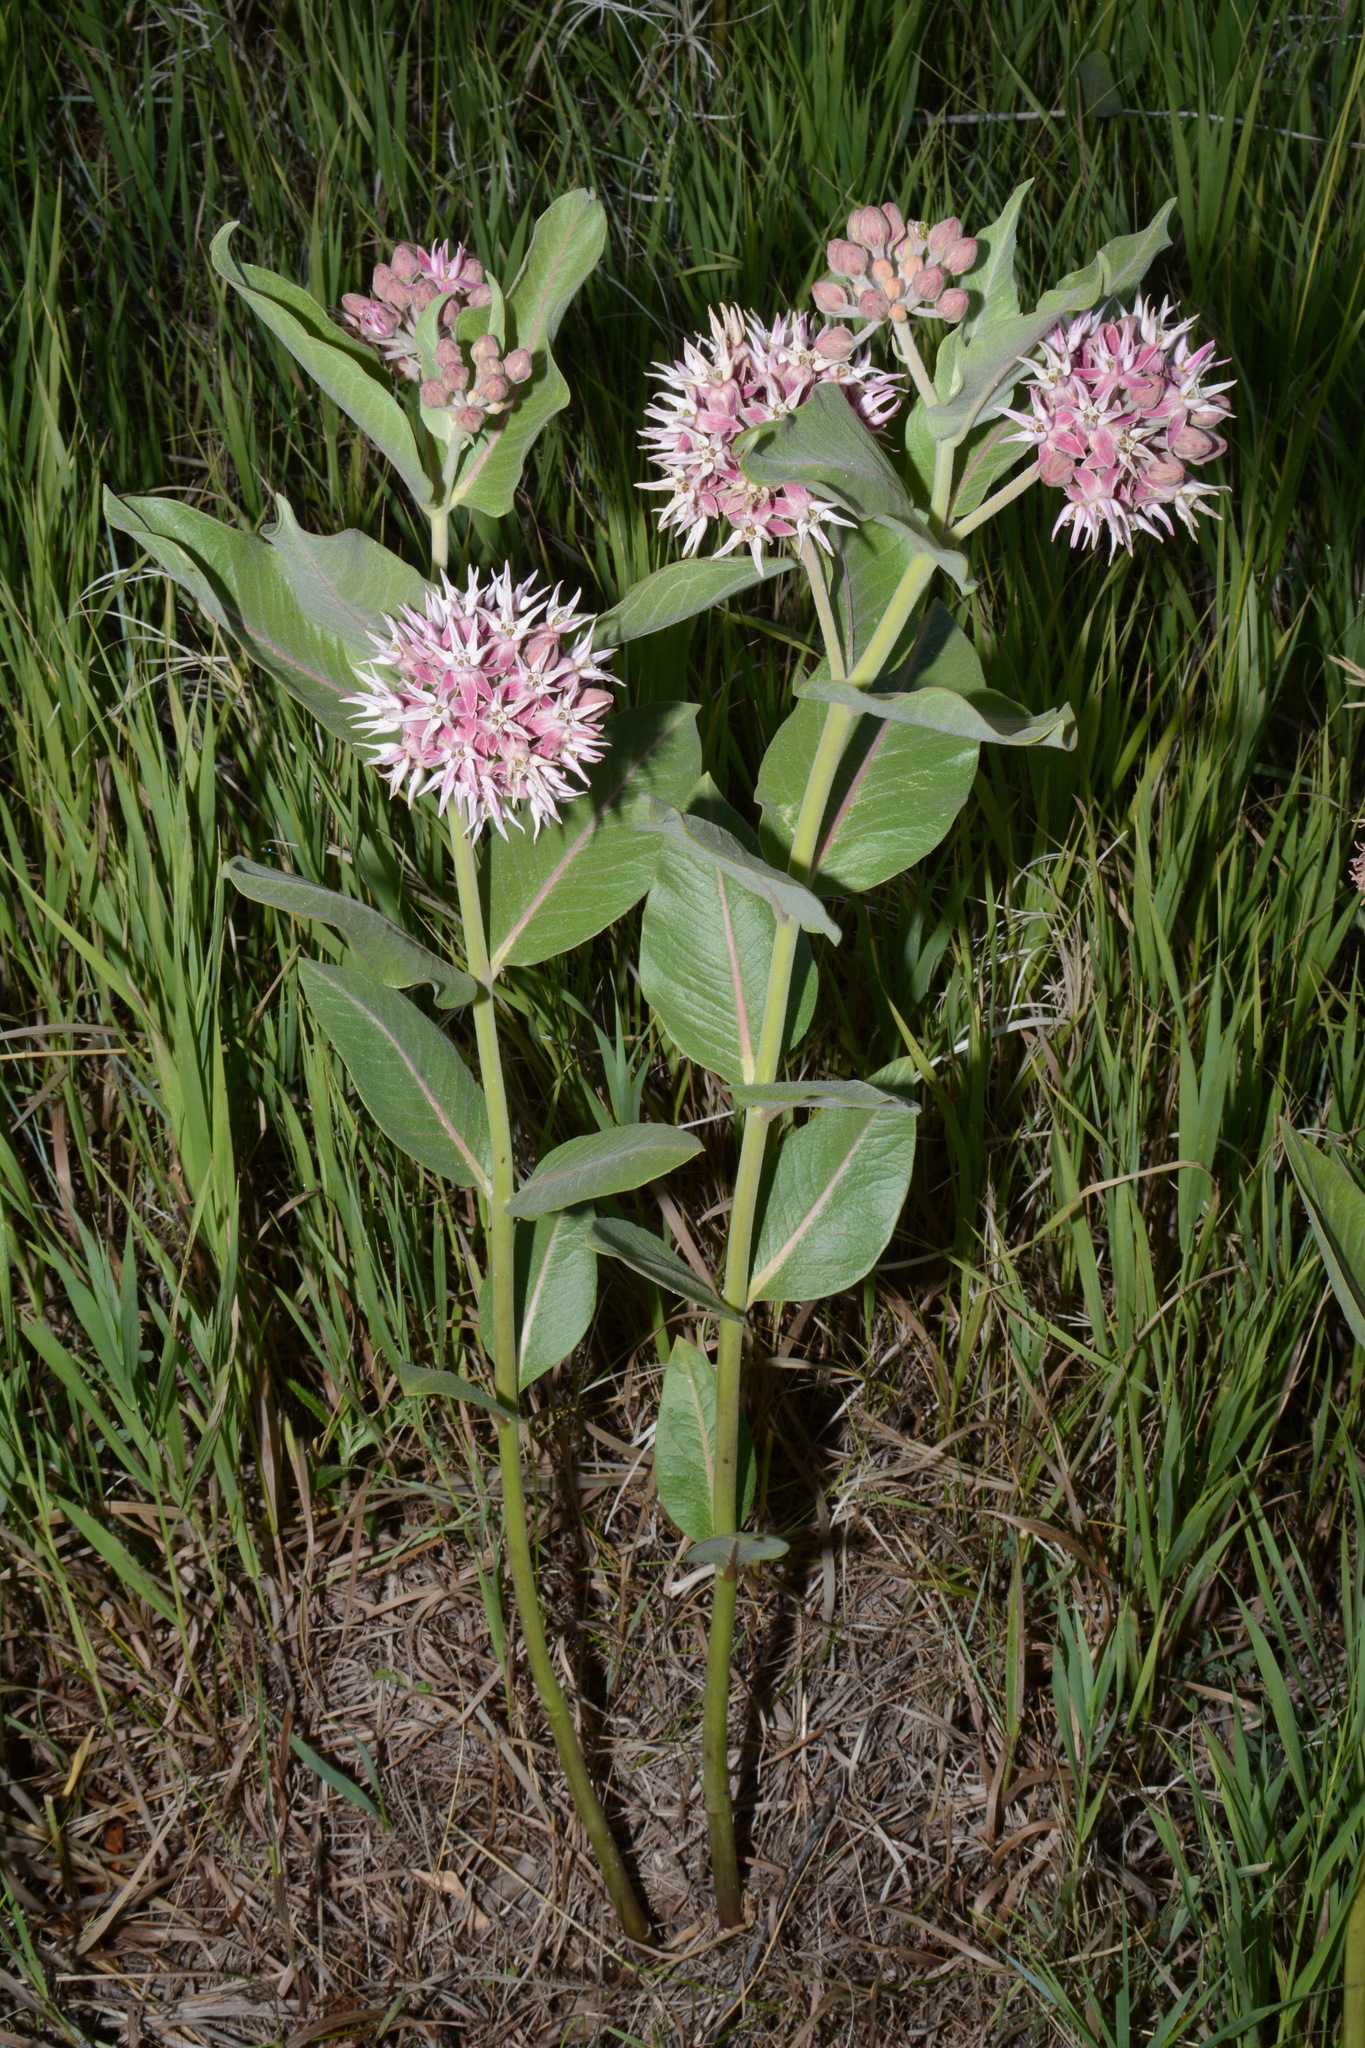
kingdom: Plantae
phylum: Tracheophyta
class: Magnoliopsida
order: Gentianales
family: Apocynaceae
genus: Asclepias
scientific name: Asclepias speciosa
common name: Showy milkweed
